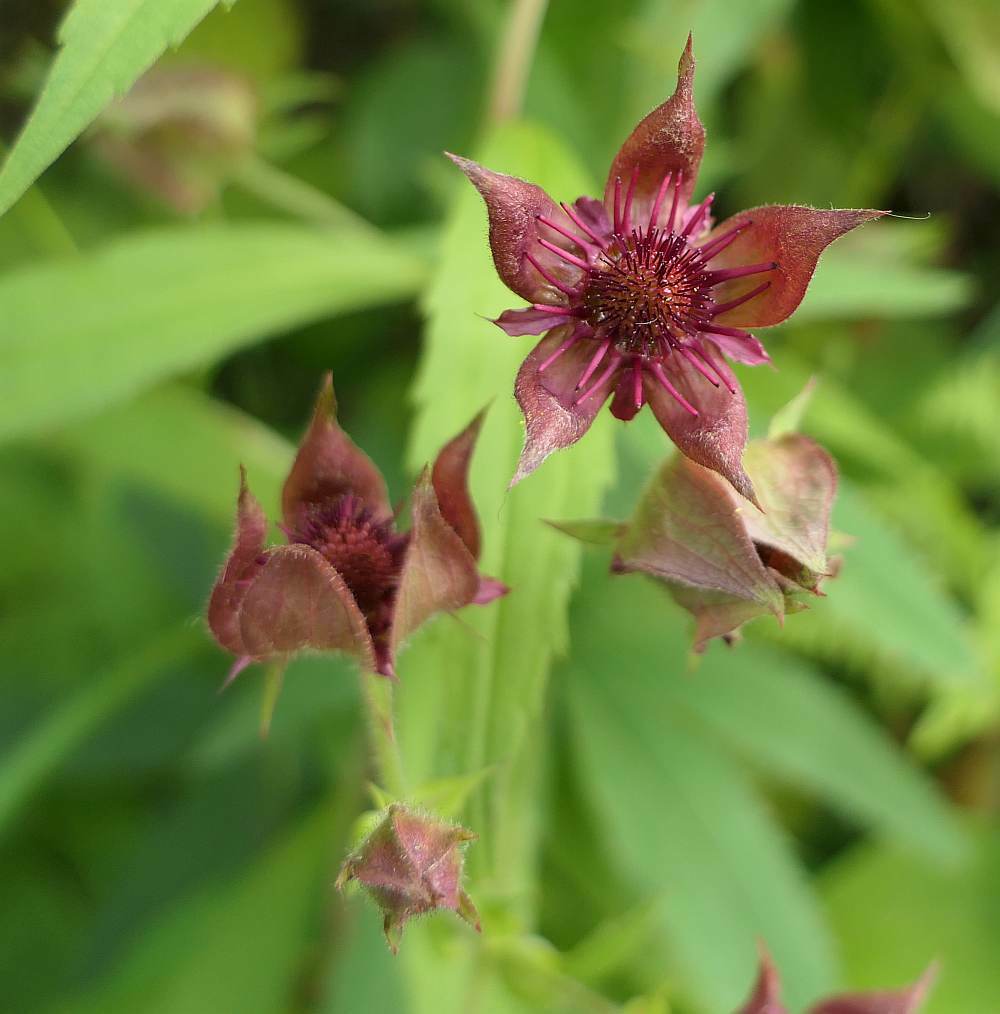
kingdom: Plantae
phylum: Tracheophyta
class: Magnoliopsida
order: Rosales
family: Rosaceae
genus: Comarum
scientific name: Comarum palustre
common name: Marsh cinquefoil
